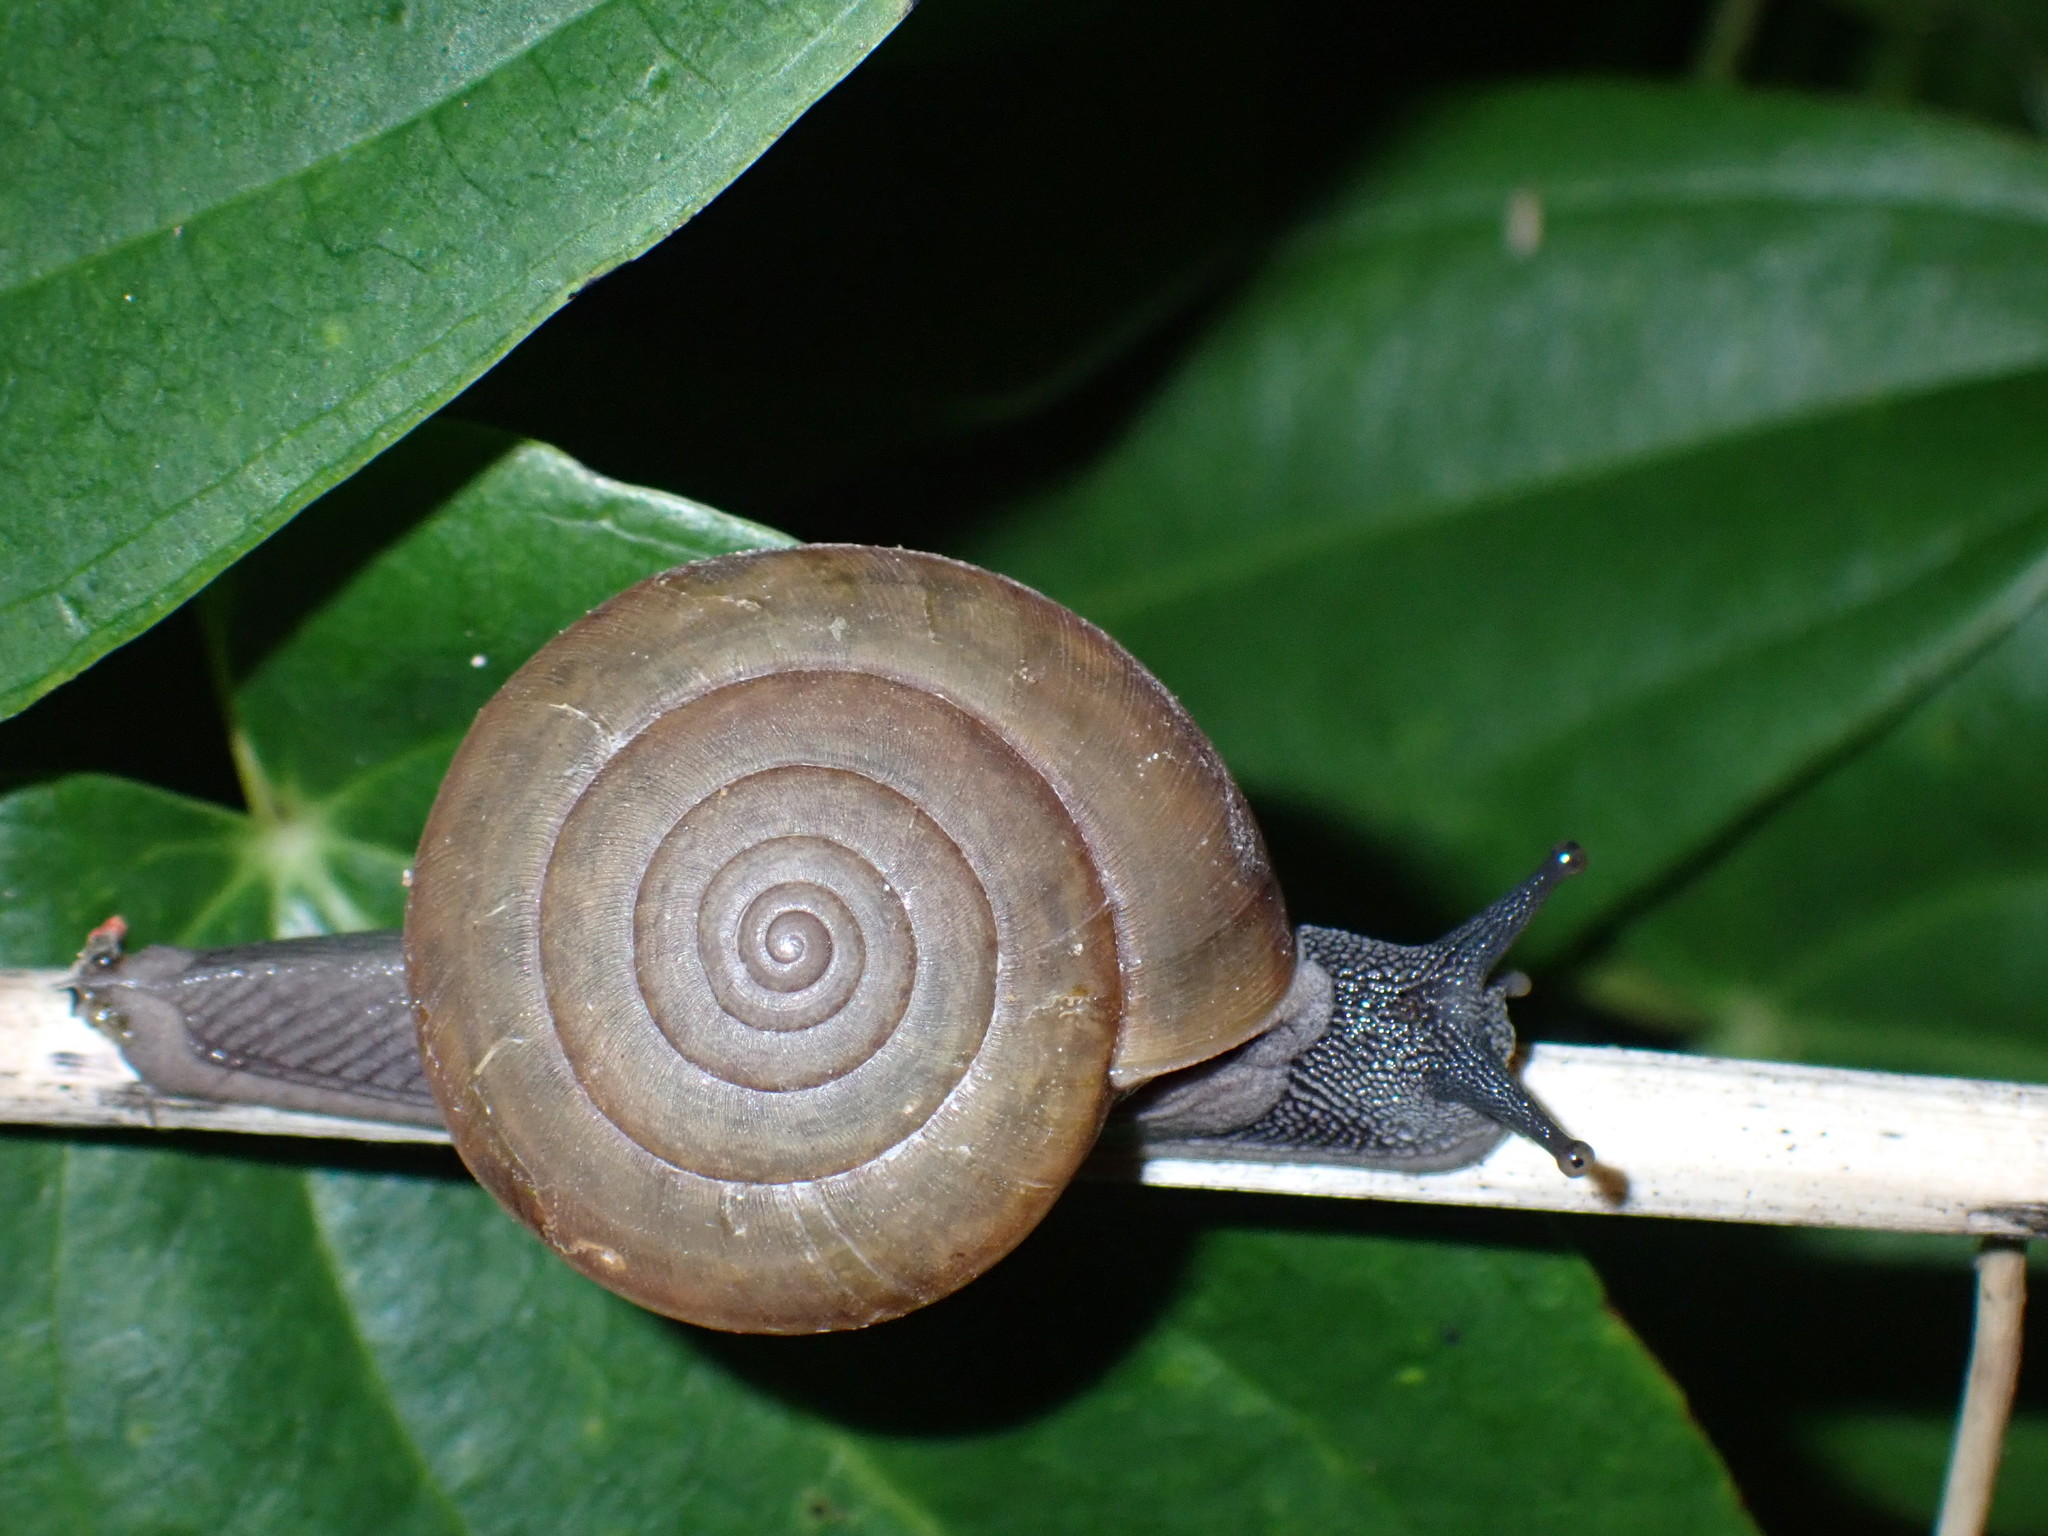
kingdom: Animalia
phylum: Mollusca
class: Gastropoda
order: Stylommatophora
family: Ariophantidae
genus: Sarika
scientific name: Sarika siamensis
